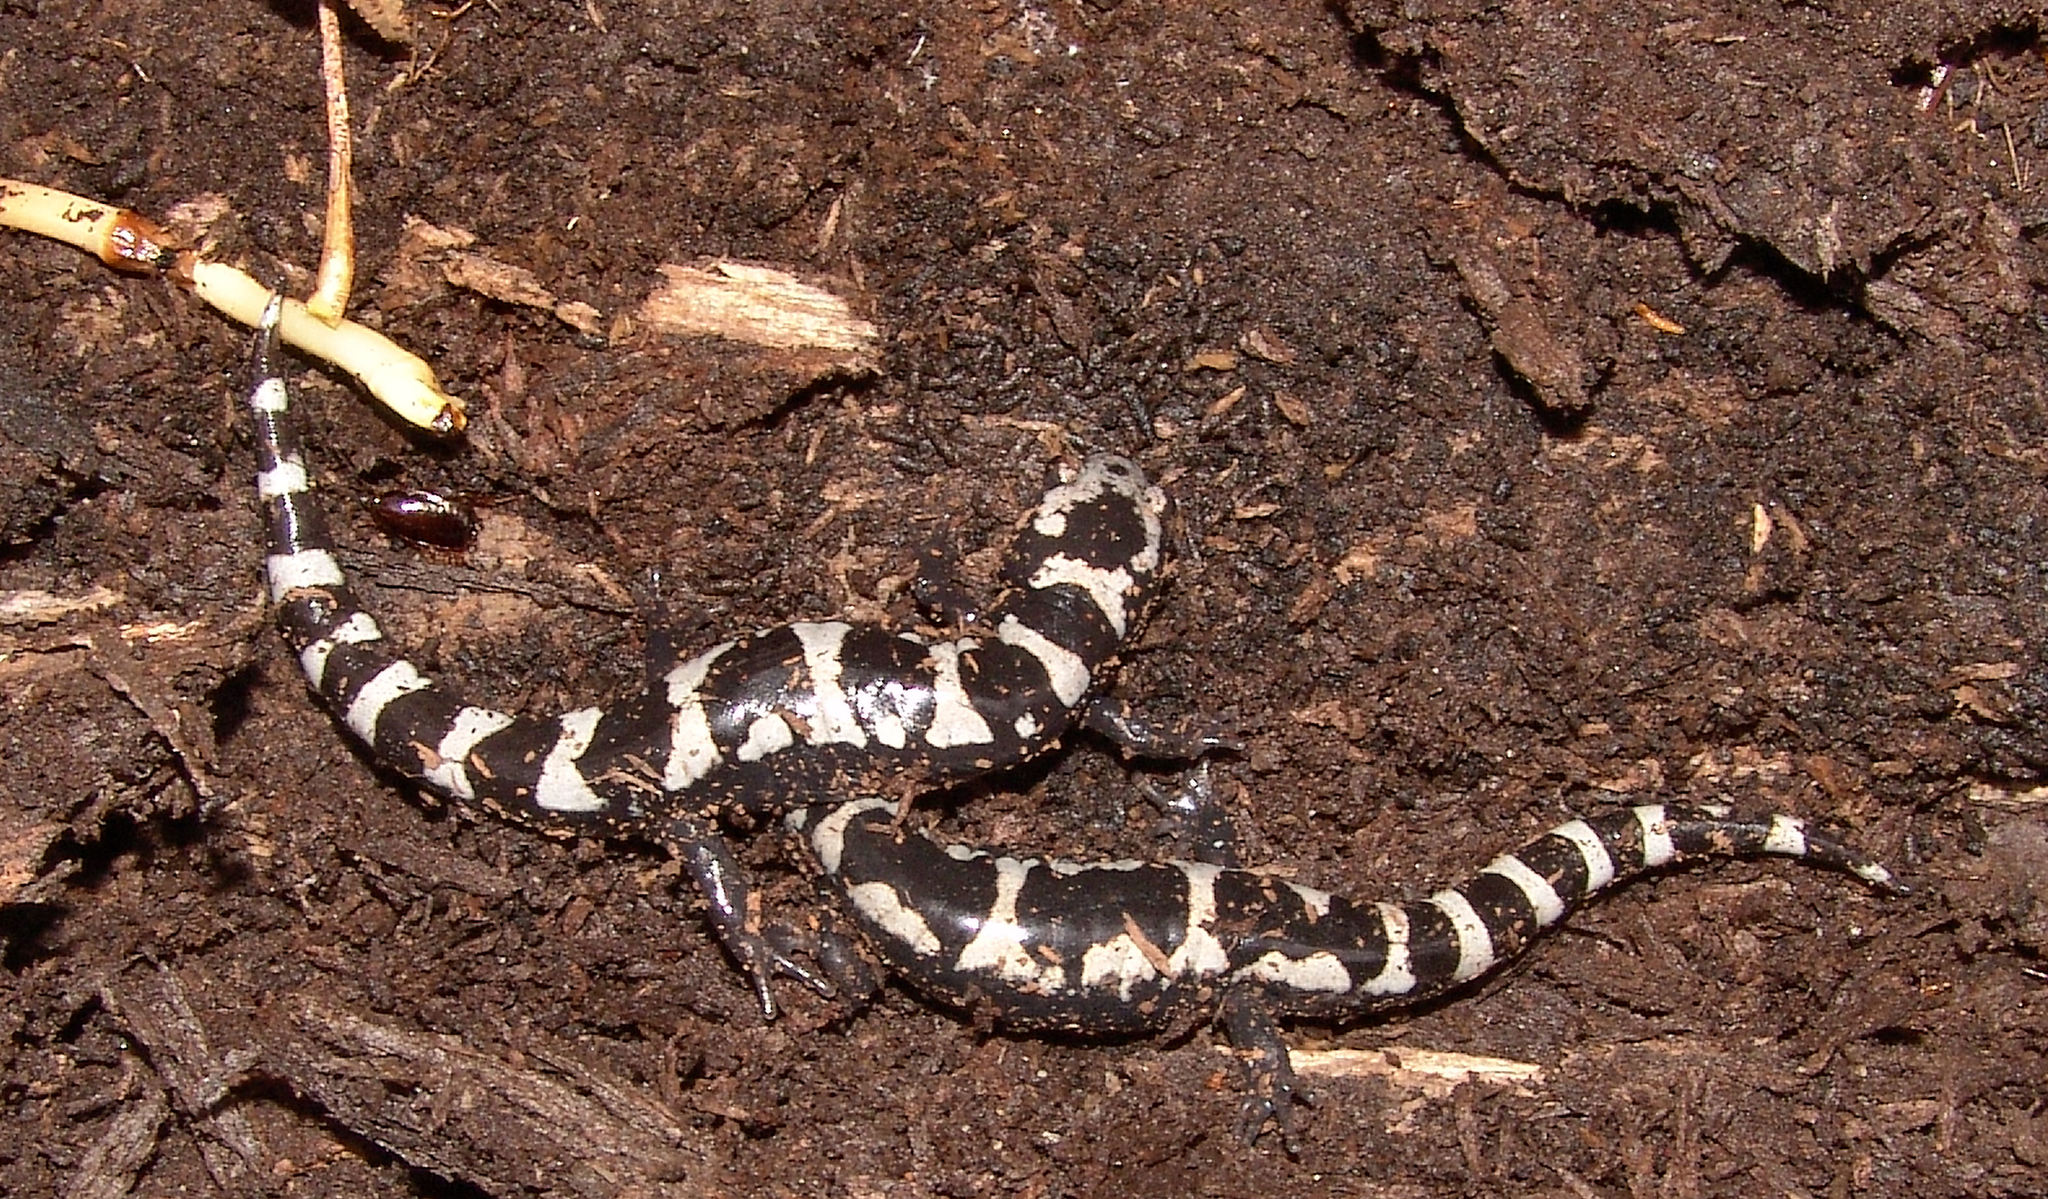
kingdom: Animalia
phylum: Chordata
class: Amphibia
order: Caudata
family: Ambystomatidae
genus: Ambystoma
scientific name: Ambystoma opacum
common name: Marbled salamander
